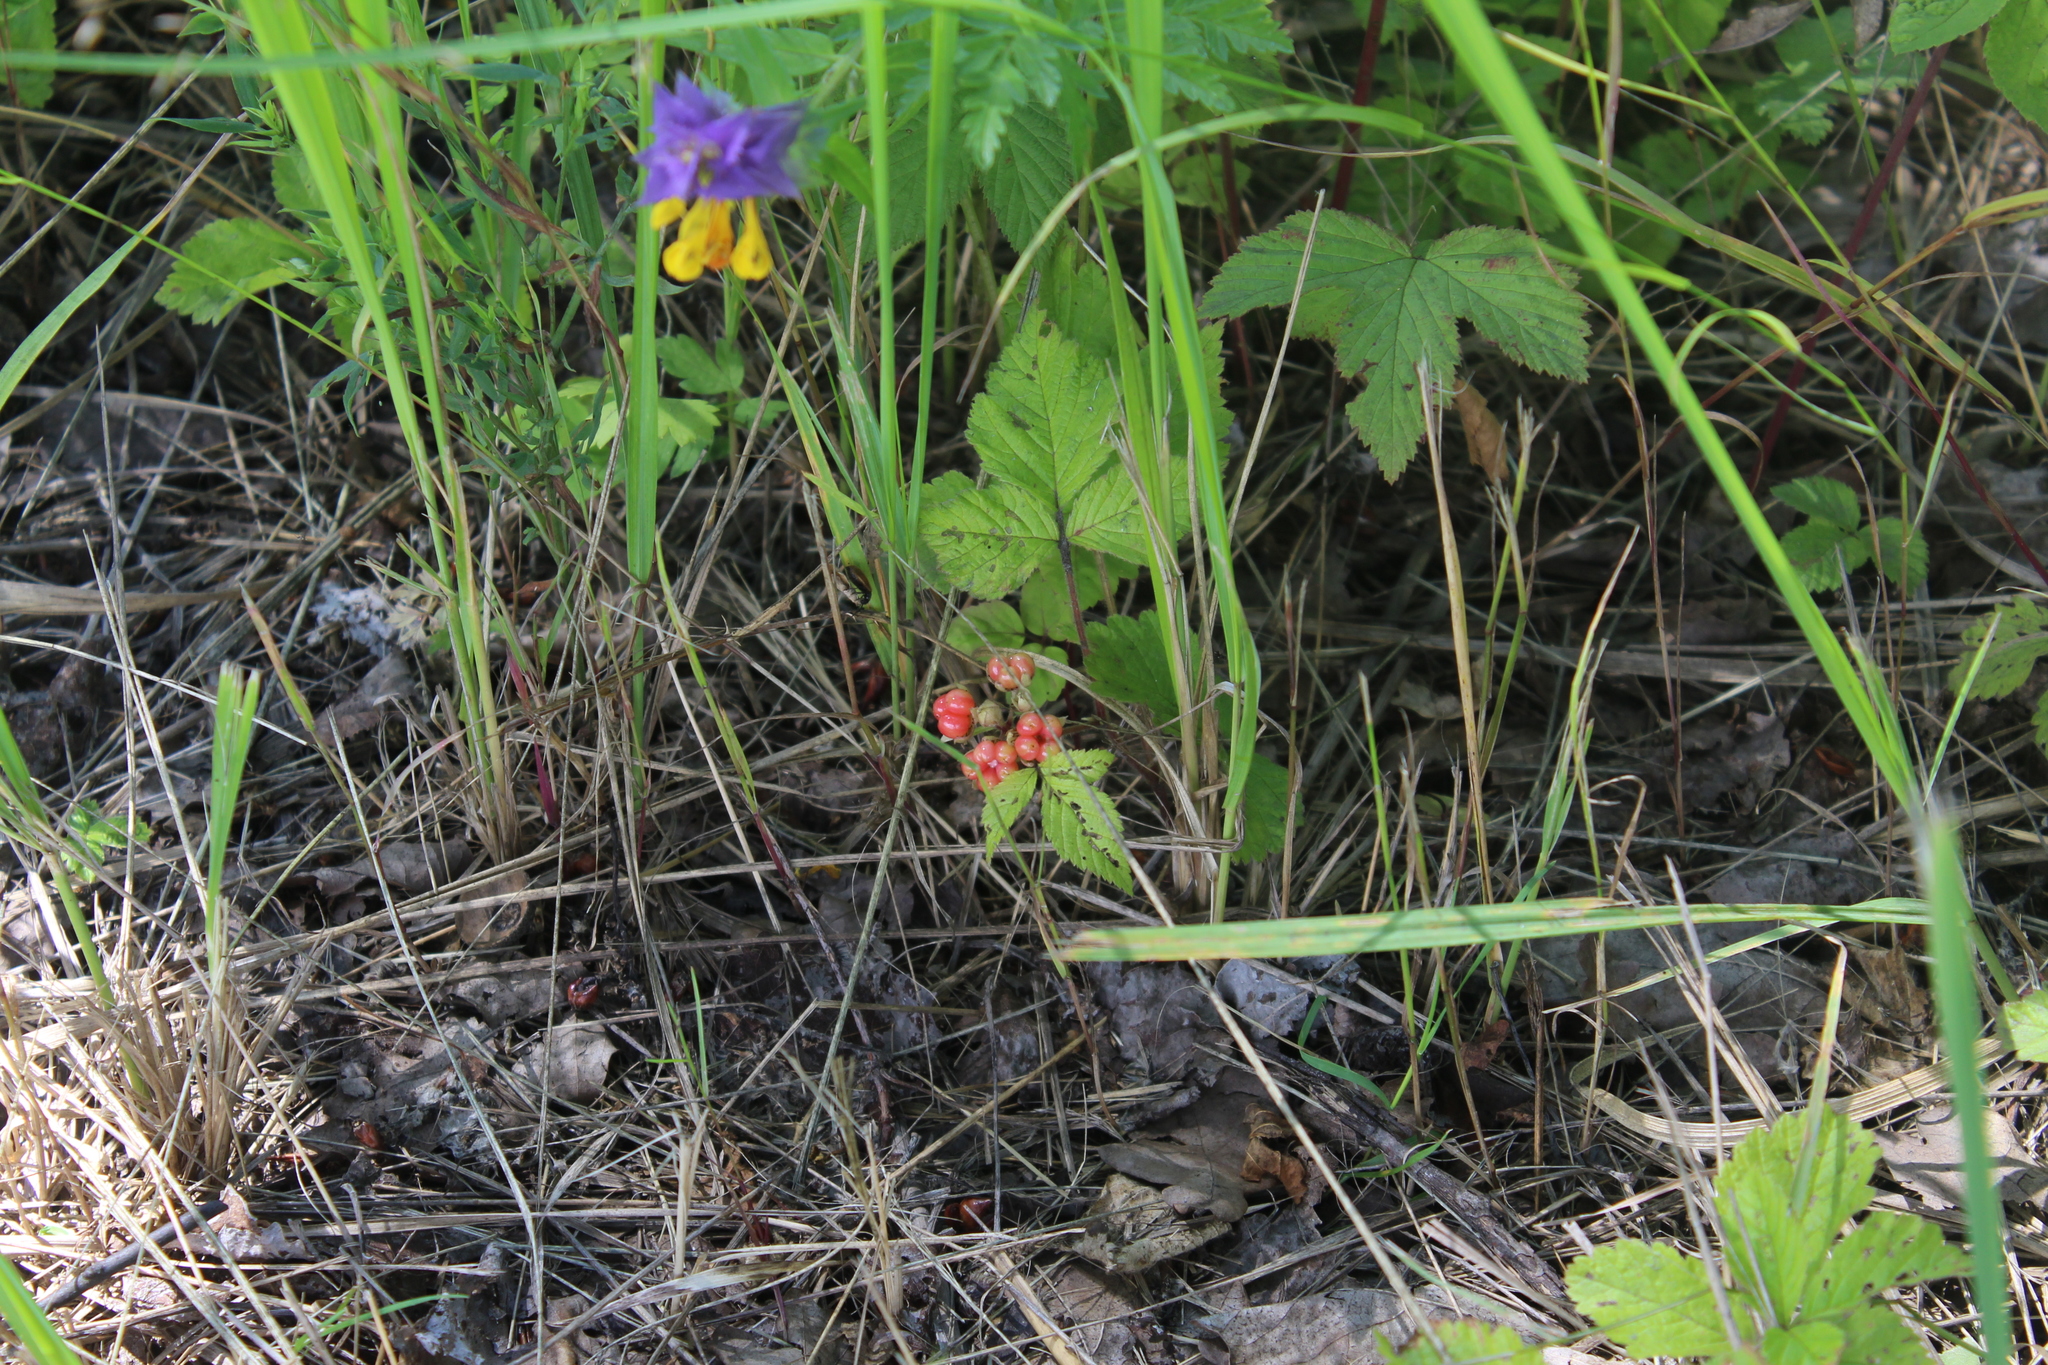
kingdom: Plantae
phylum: Tracheophyta
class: Magnoliopsida
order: Rosales
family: Rosaceae
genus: Rubus
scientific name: Rubus saxatilis
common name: Stone bramble
